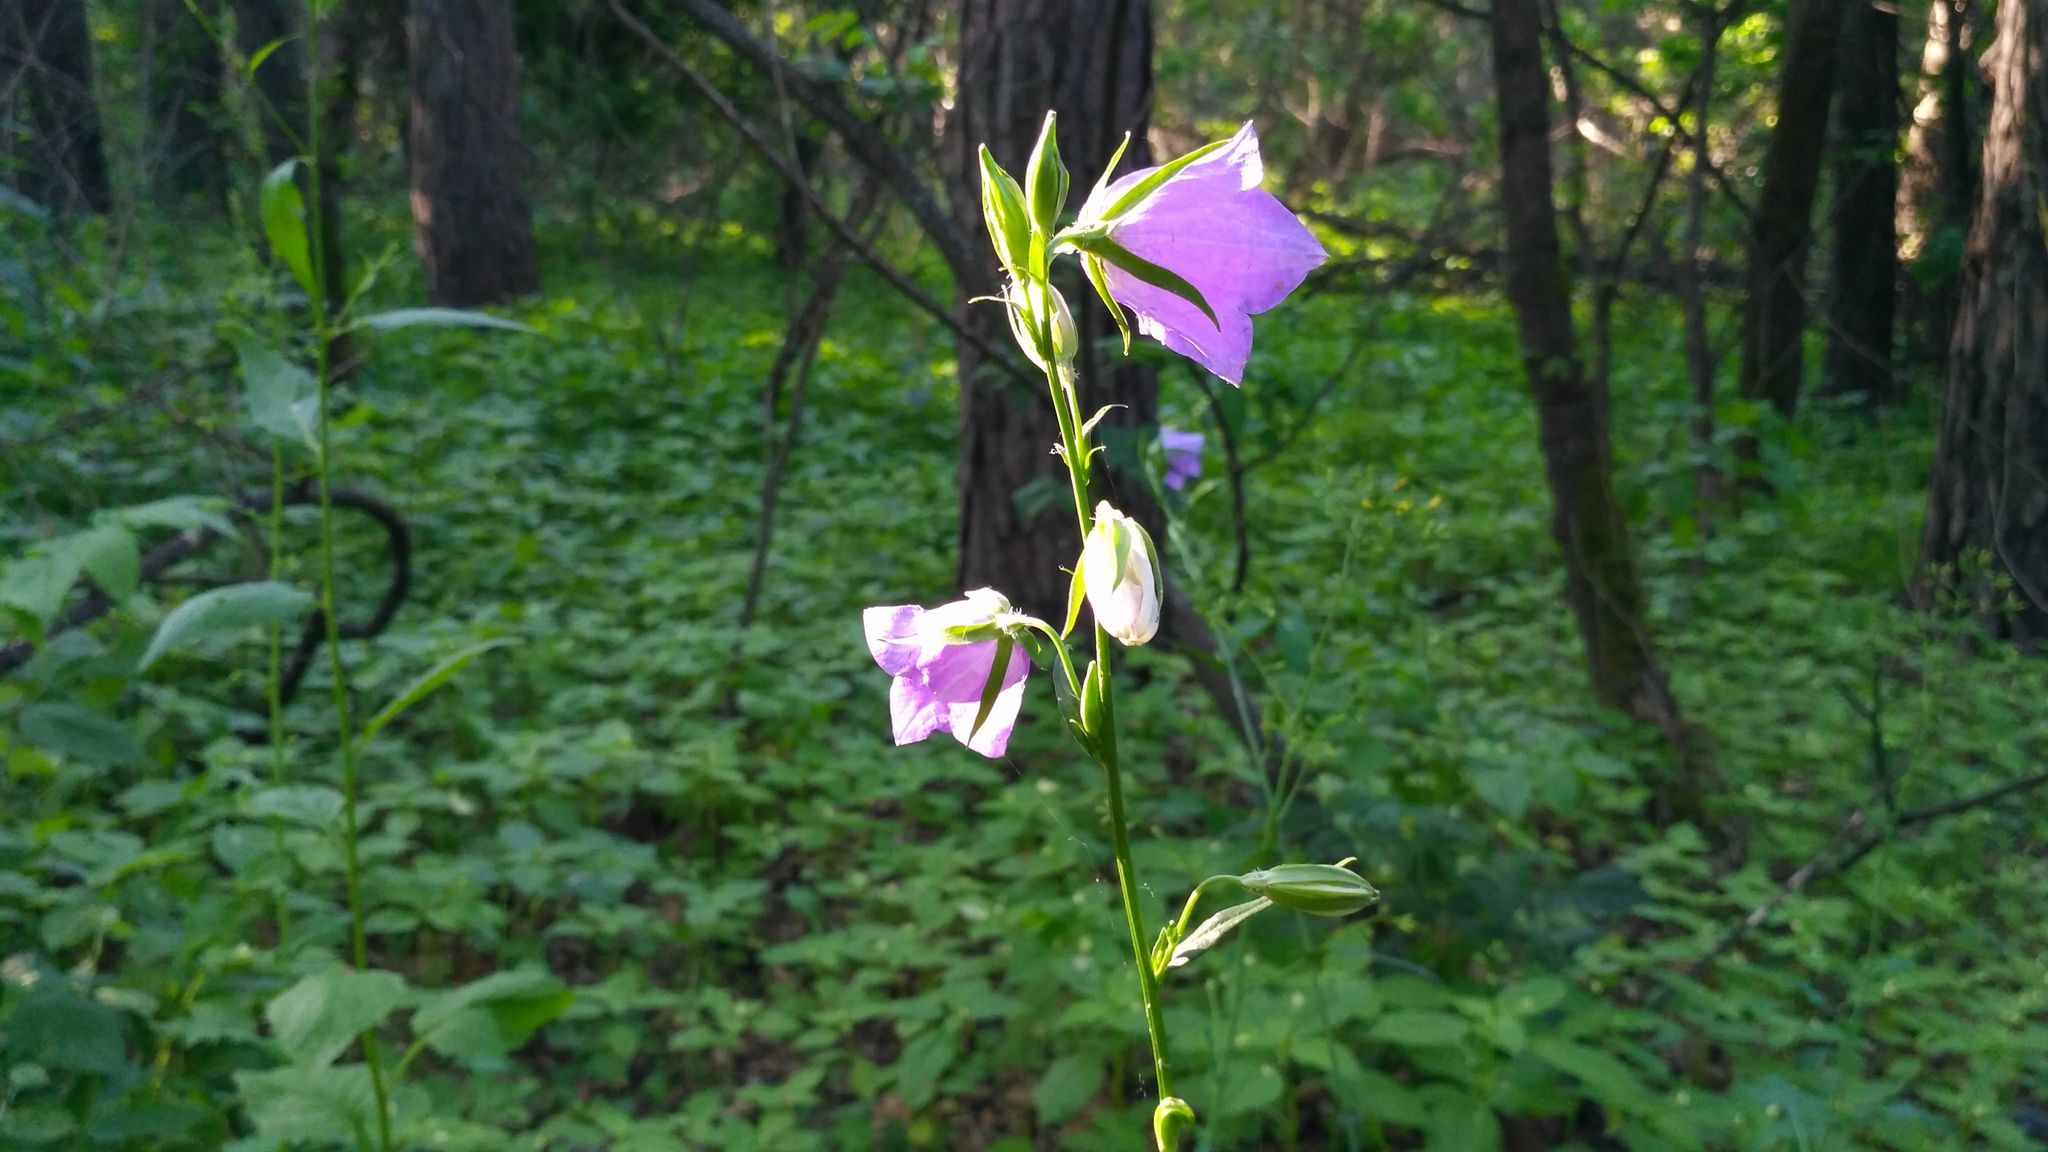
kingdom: Plantae
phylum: Tracheophyta
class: Magnoliopsida
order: Asterales
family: Campanulaceae
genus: Campanula
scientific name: Campanula persicifolia
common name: Peach-leaved bellflower
